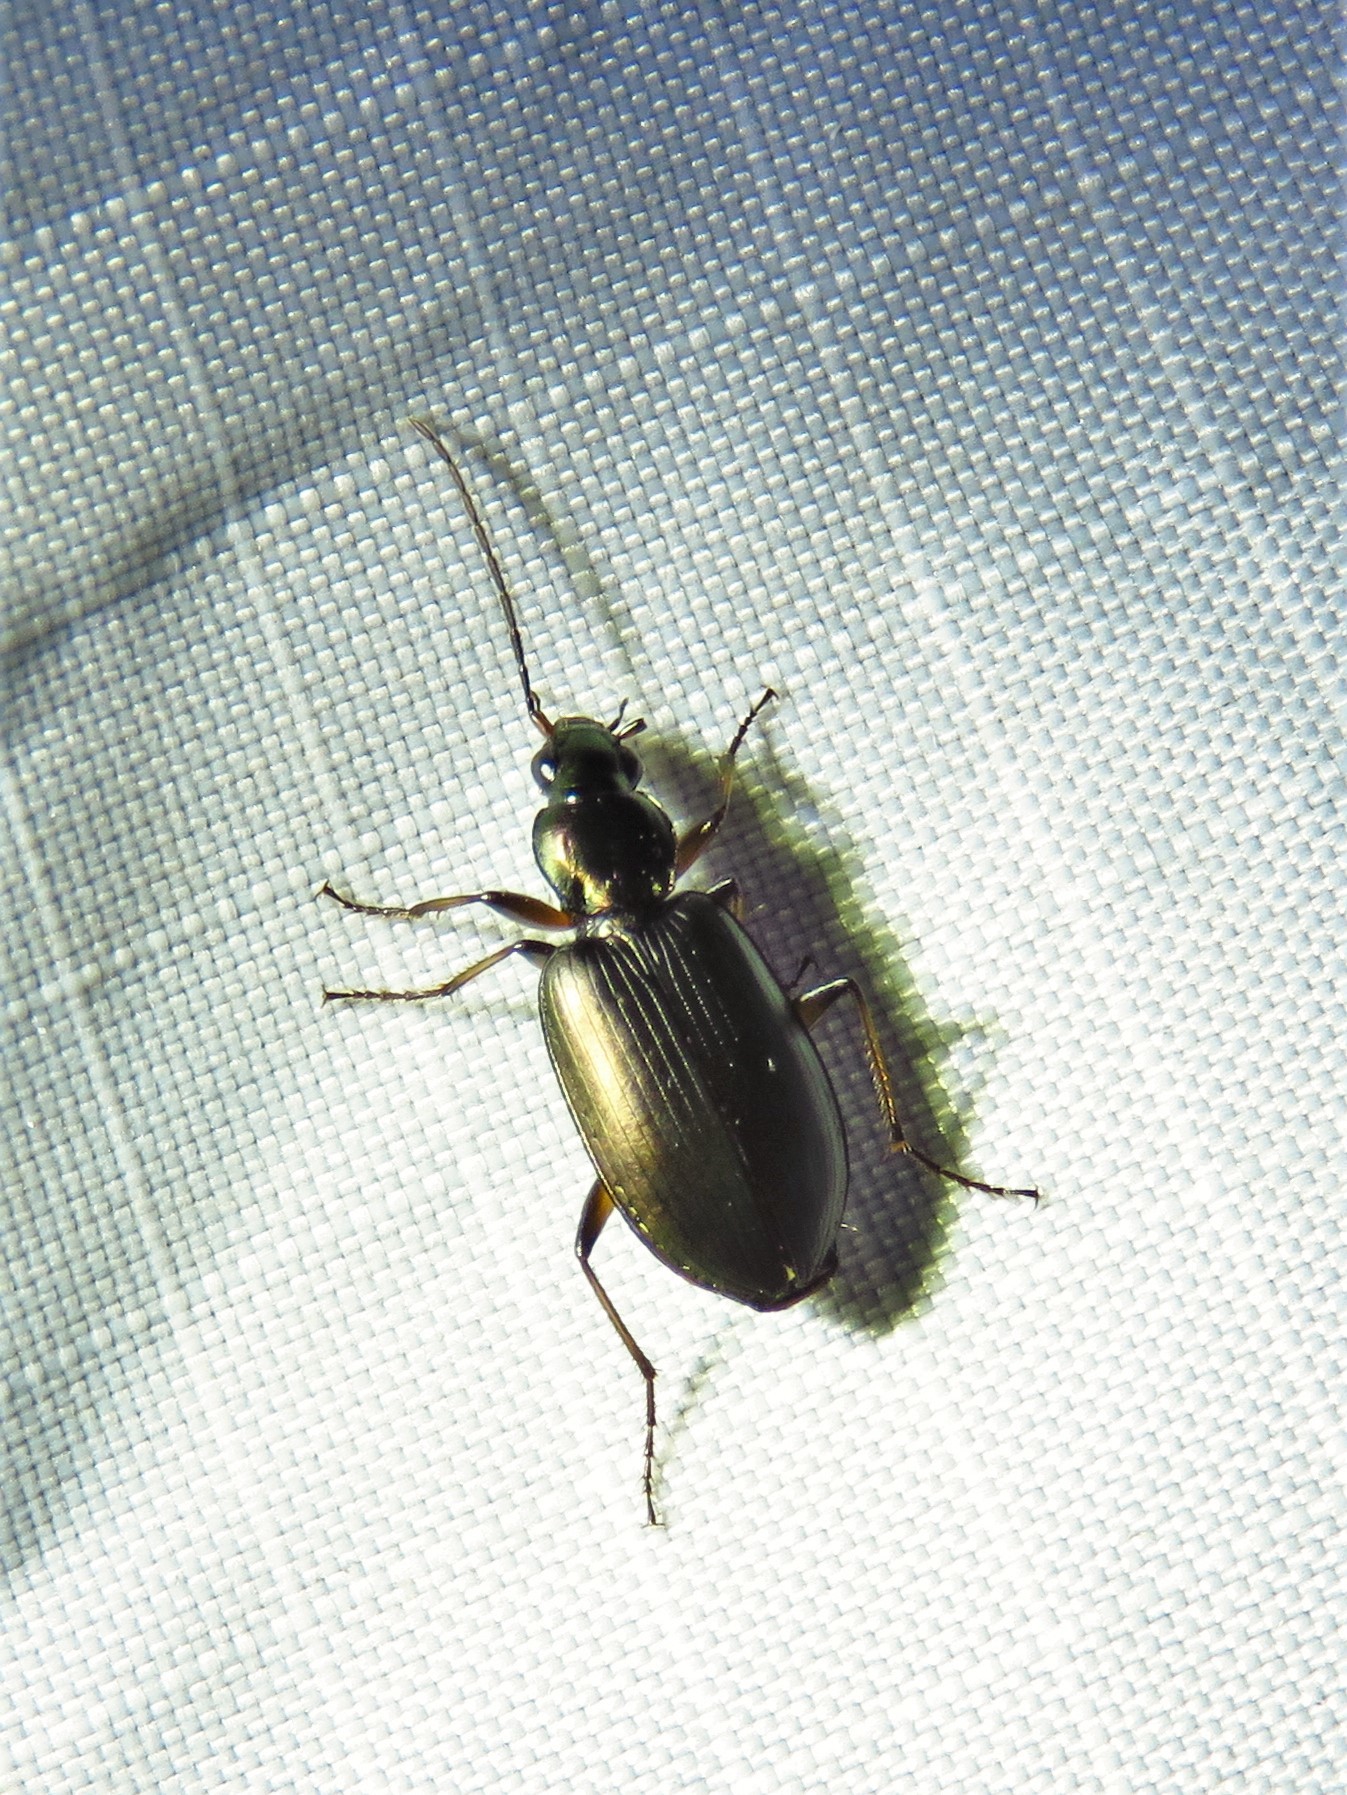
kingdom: Animalia
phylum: Arthropoda
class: Insecta
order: Coleoptera
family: Carabidae
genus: Agonum
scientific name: Agonum texanum
